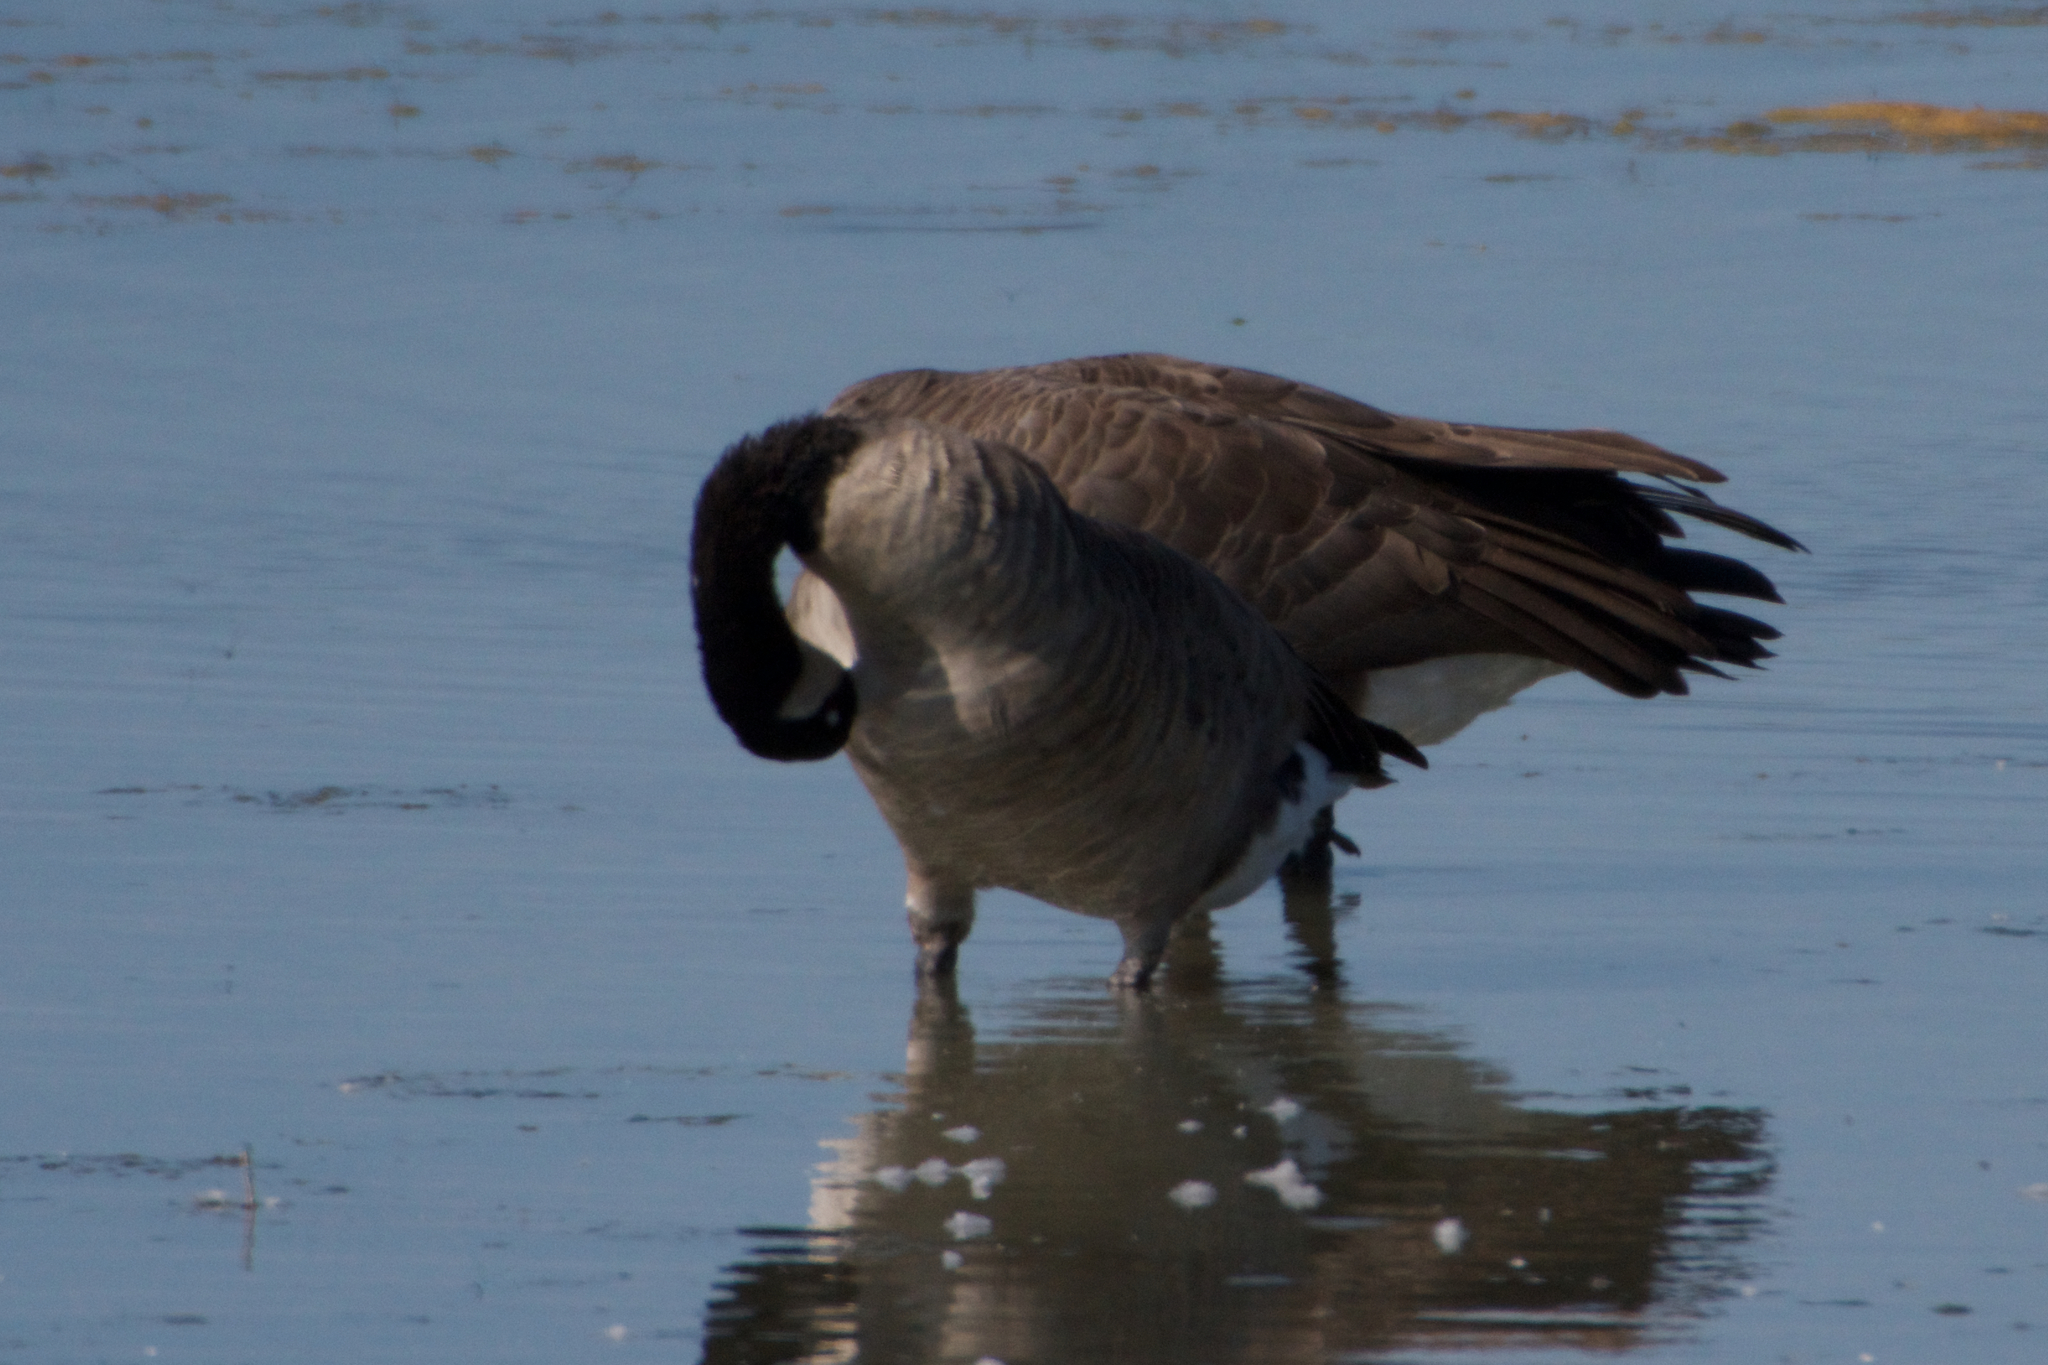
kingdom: Animalia
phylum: Chordata
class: Aves
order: Anseriformes
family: Anatidae
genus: Branta
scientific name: Branta canadensis
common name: Canada goose
